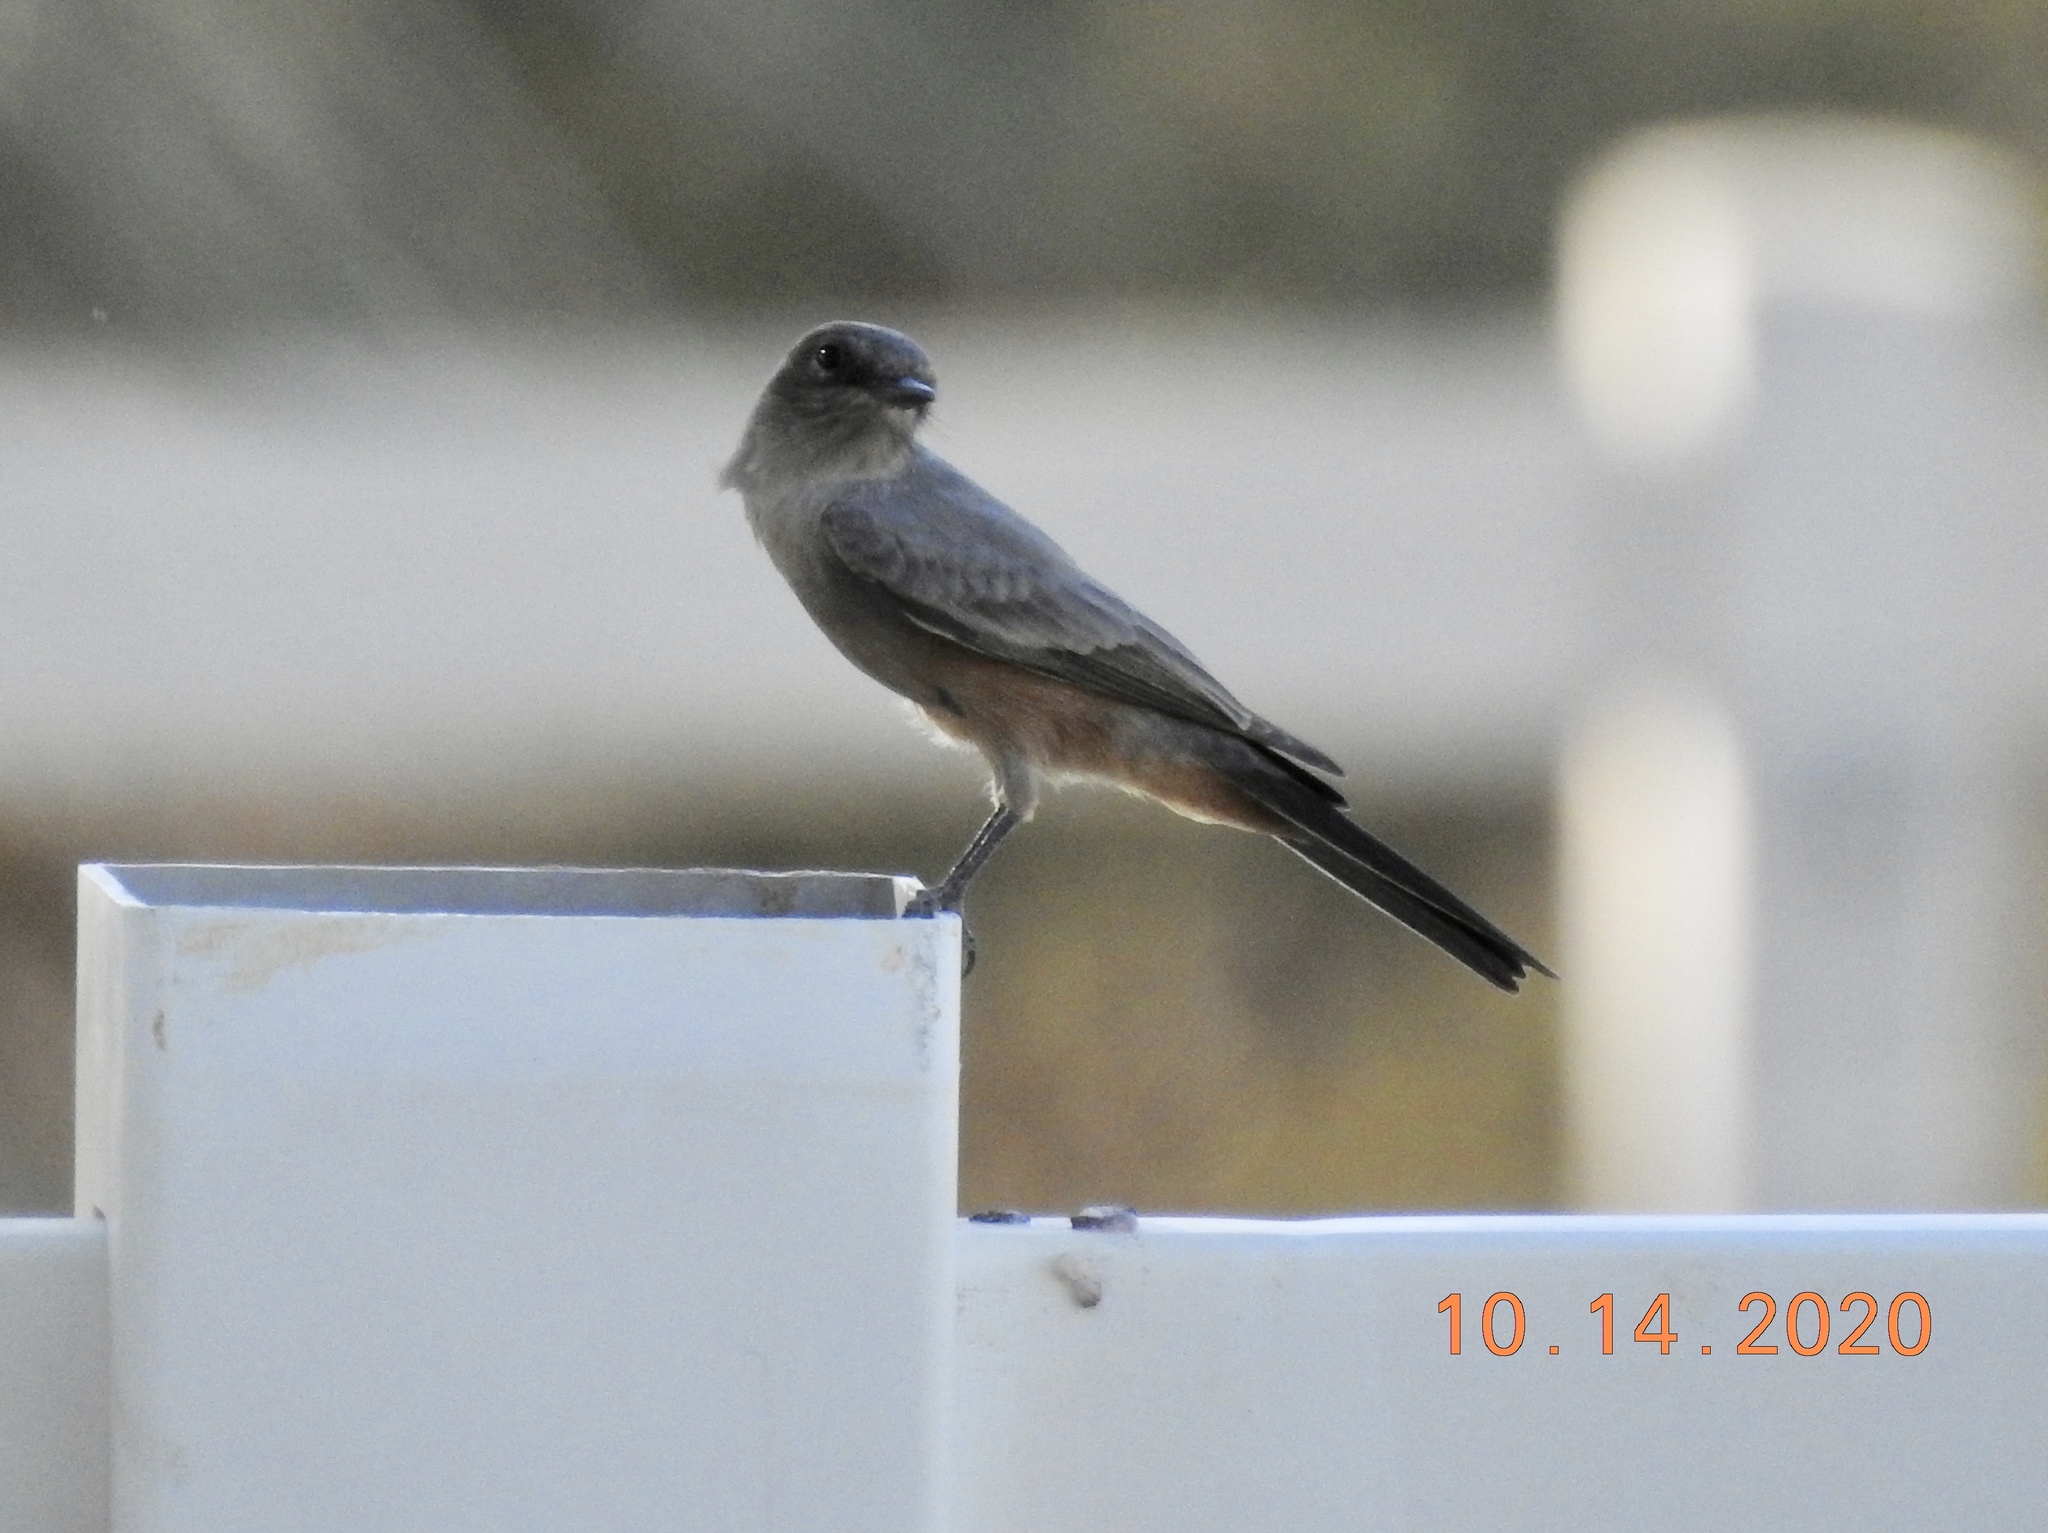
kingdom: Animalia
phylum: Chordata
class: Aves
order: Passeriformes
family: Tyrannidae
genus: Sayornis
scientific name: Sayornis saya
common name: Say's phoebe
